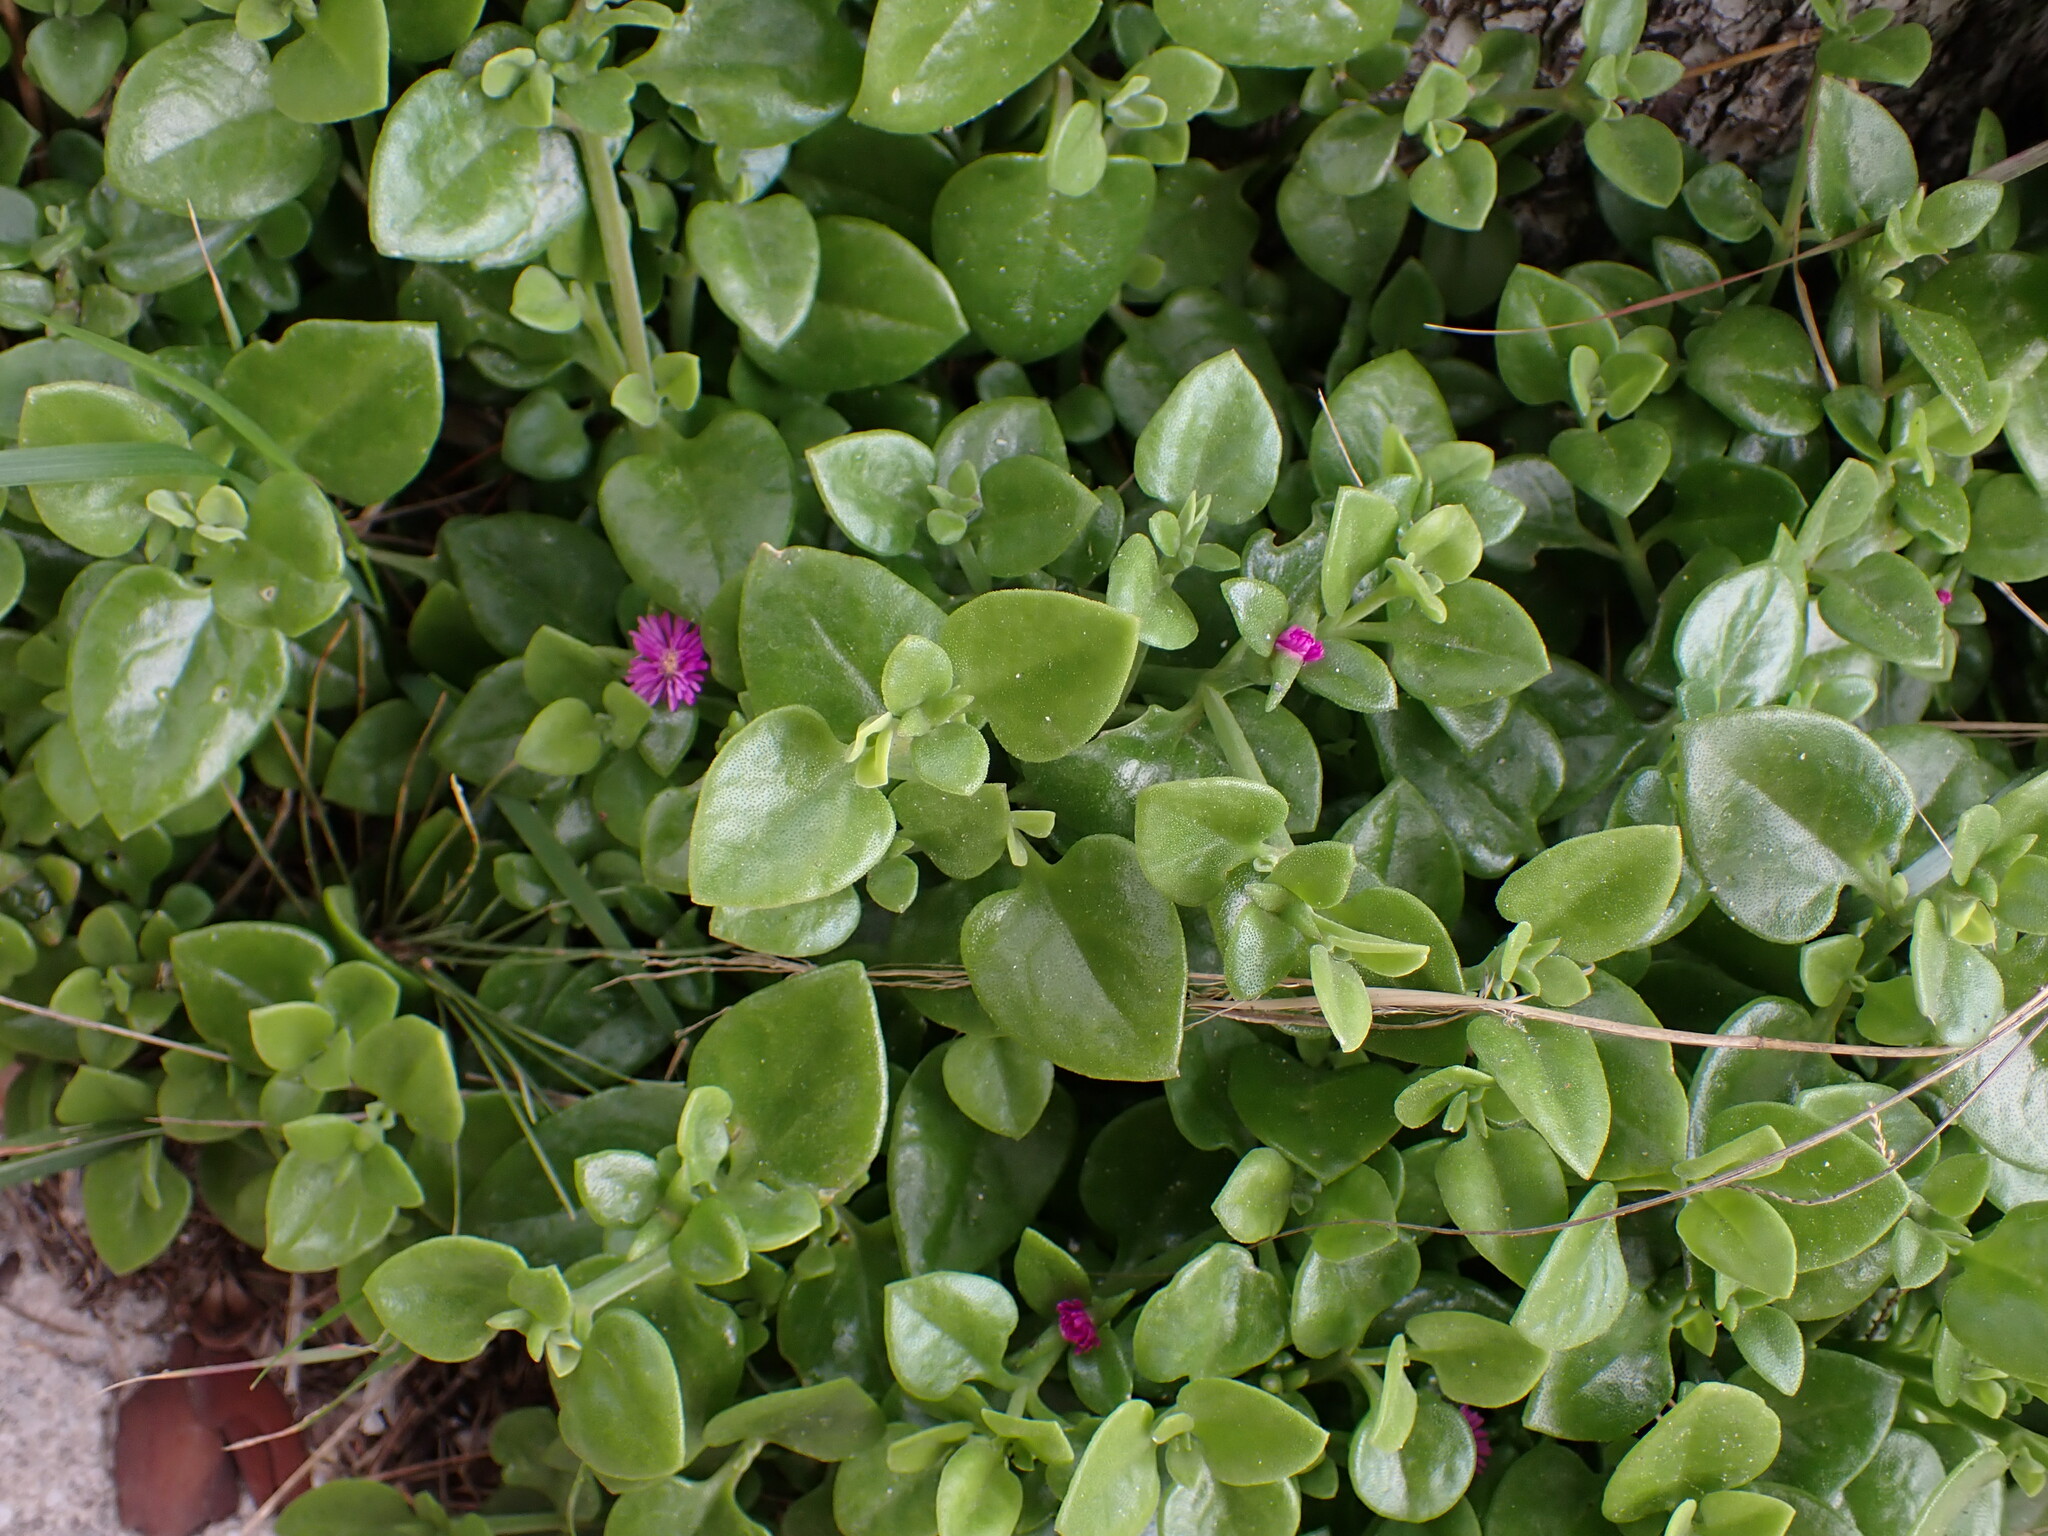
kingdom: Plantae
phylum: Tracheophyta
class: Magnoliopsida
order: Caryophyllales
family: Aizoaceae
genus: Mesembryanthemum
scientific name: Mesembryanthemum cordifolium
